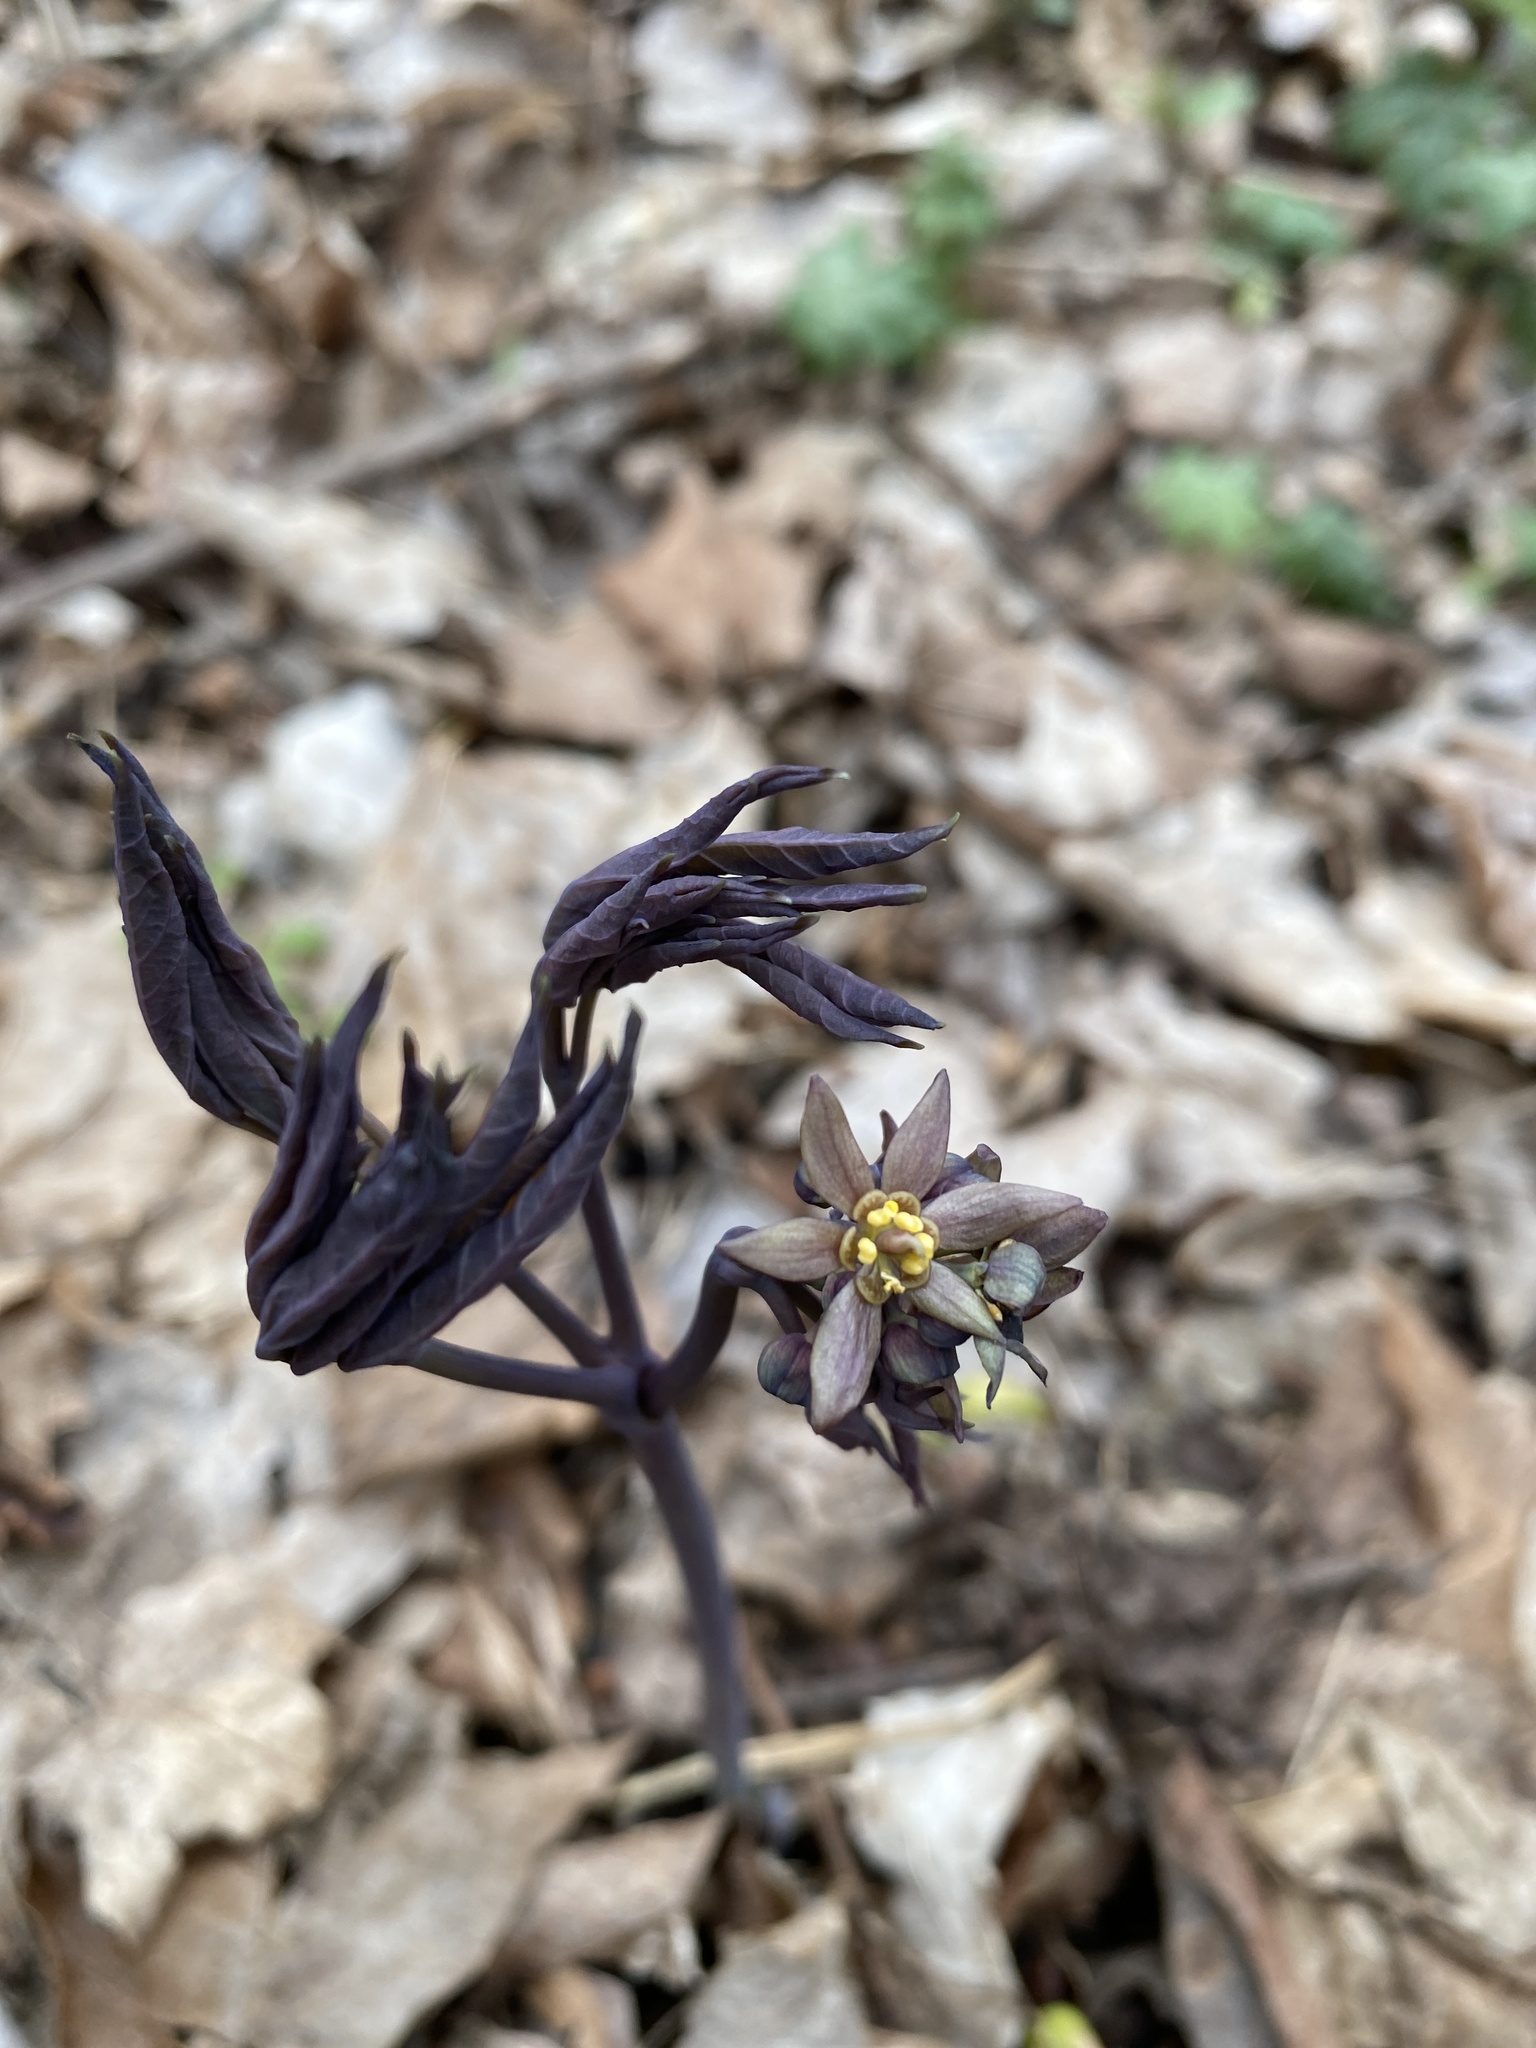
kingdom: Plantae
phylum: Tracheophyta
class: Magnoliopsida
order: Ranunculales
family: Berberidaceae
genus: Caulophyllum
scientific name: Caulophyllum giganteum
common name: Blue cohosh
